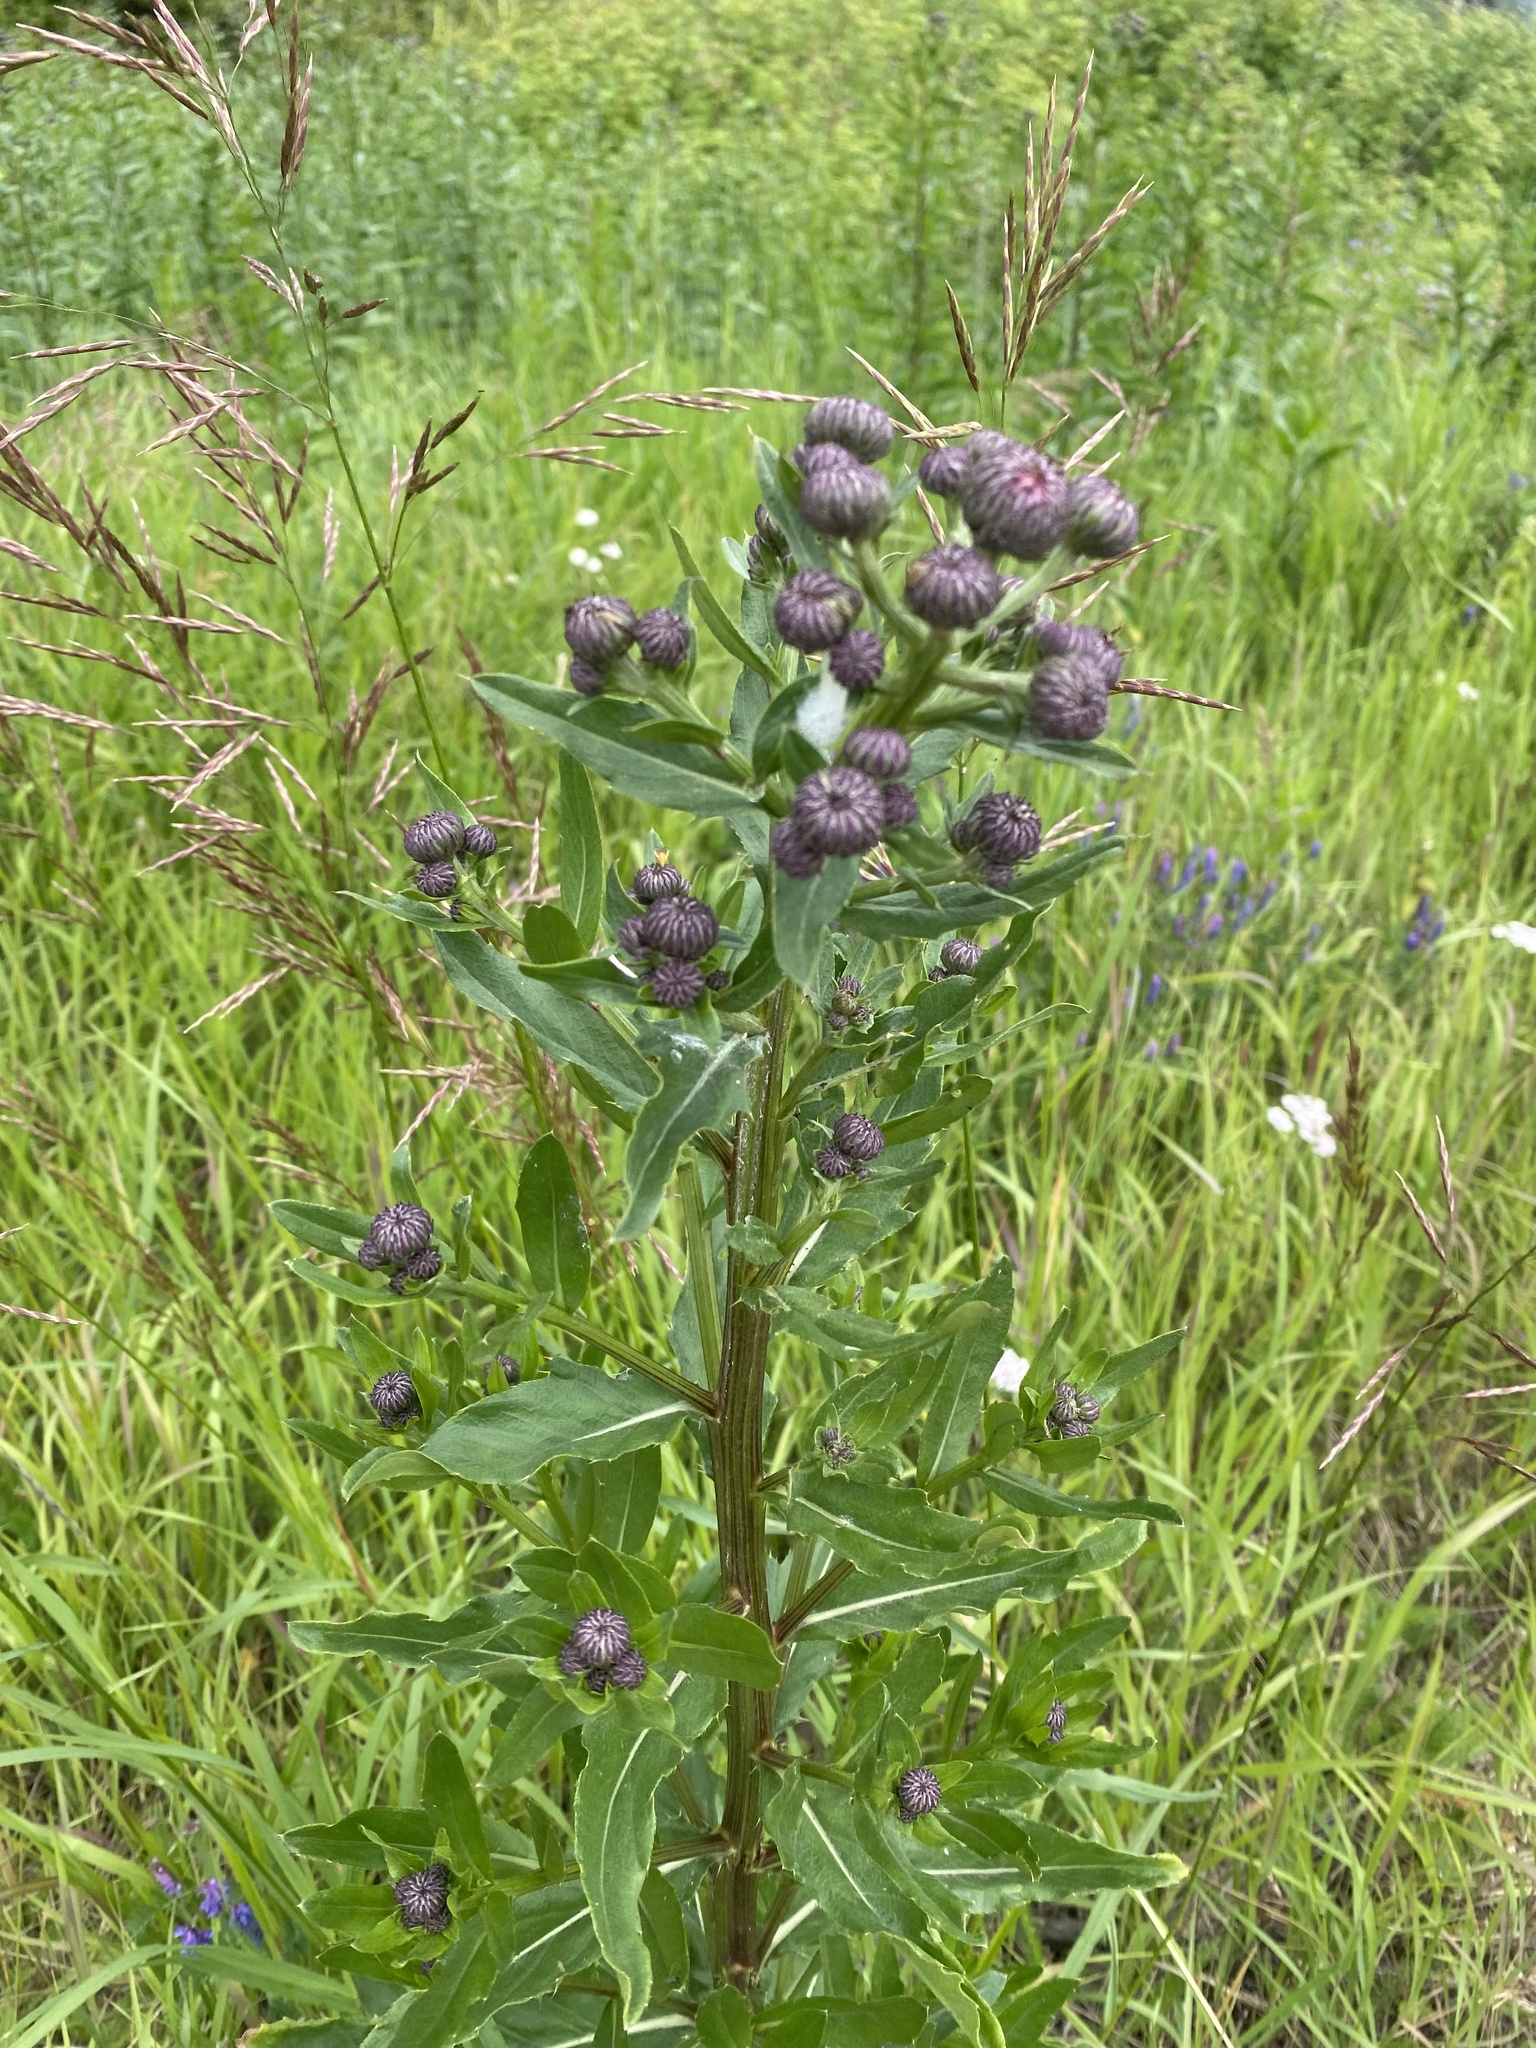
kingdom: Plantae
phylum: Tracheophyta
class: Magnoliopsida
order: Asterales
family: Asteraceae
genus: Cirsium
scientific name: Cirsium arvense
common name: Creeping thistle
